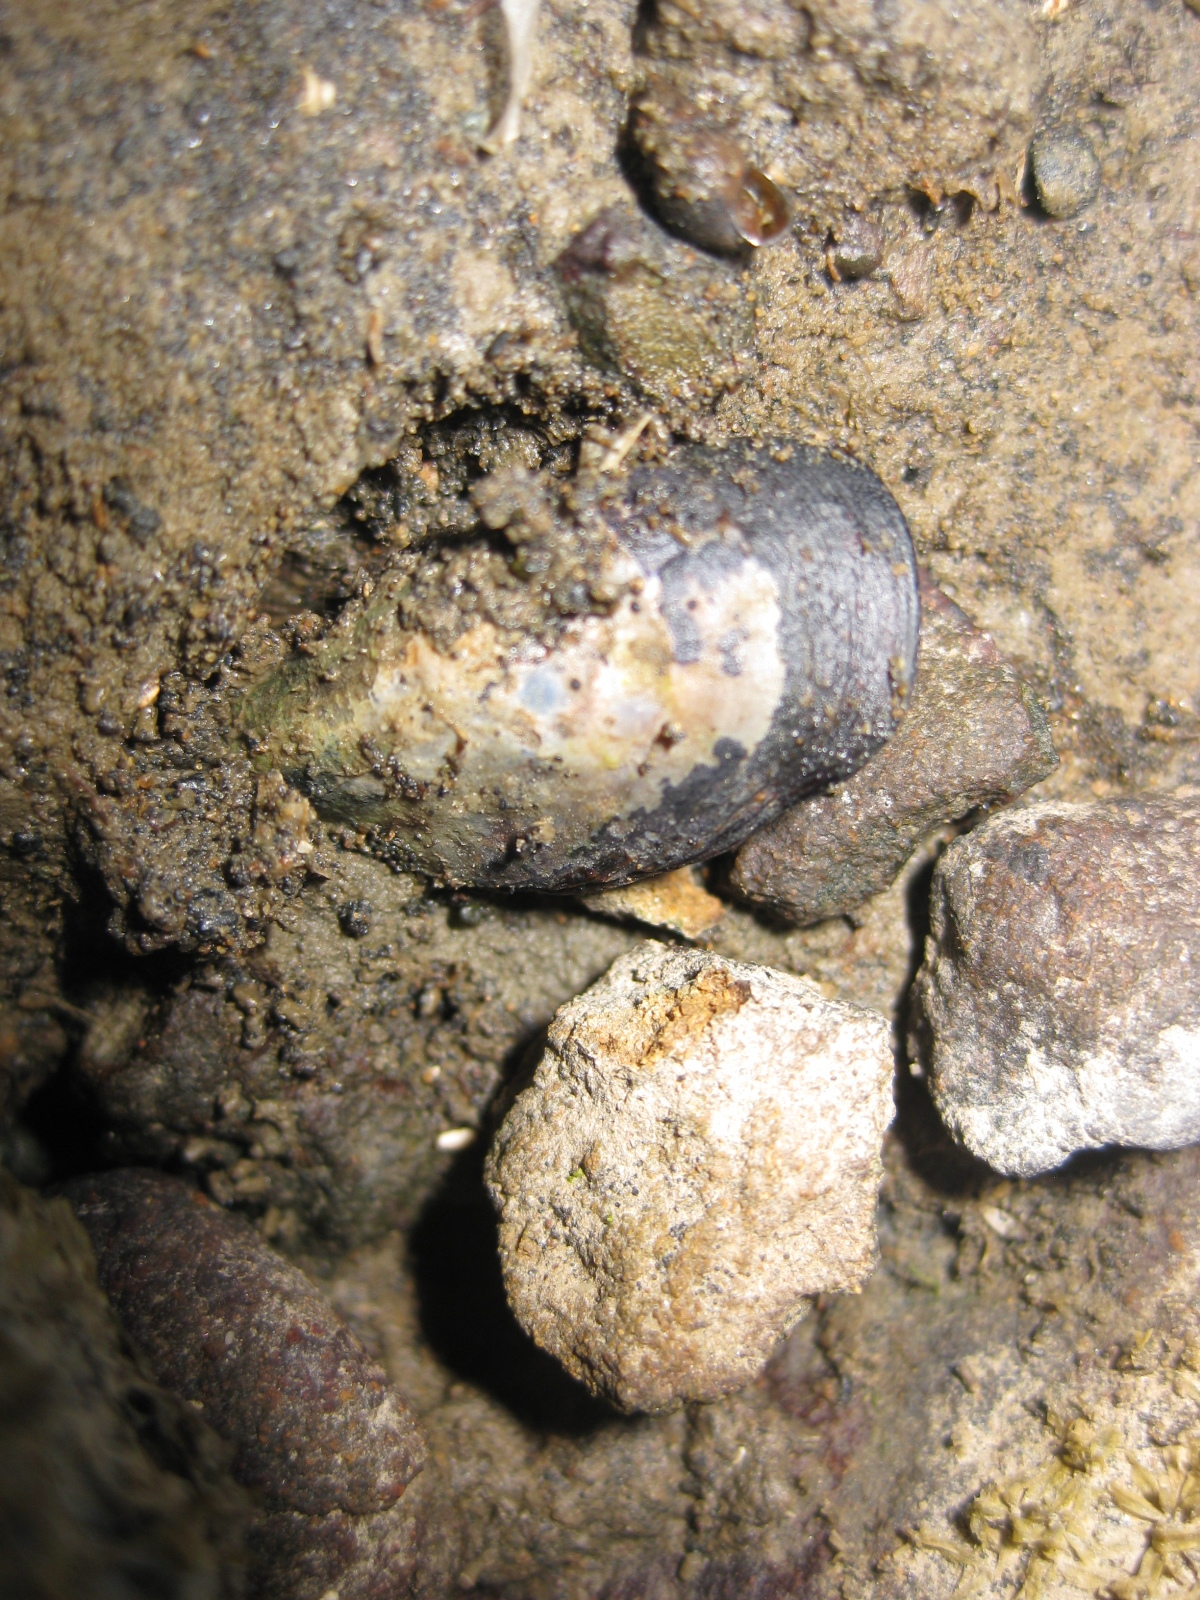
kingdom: Animalia
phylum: Mollusca
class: Bivalvia
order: Mytilida
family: Mytilidae
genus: Xenostrobus
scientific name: Xenostrobus neozelanicus
